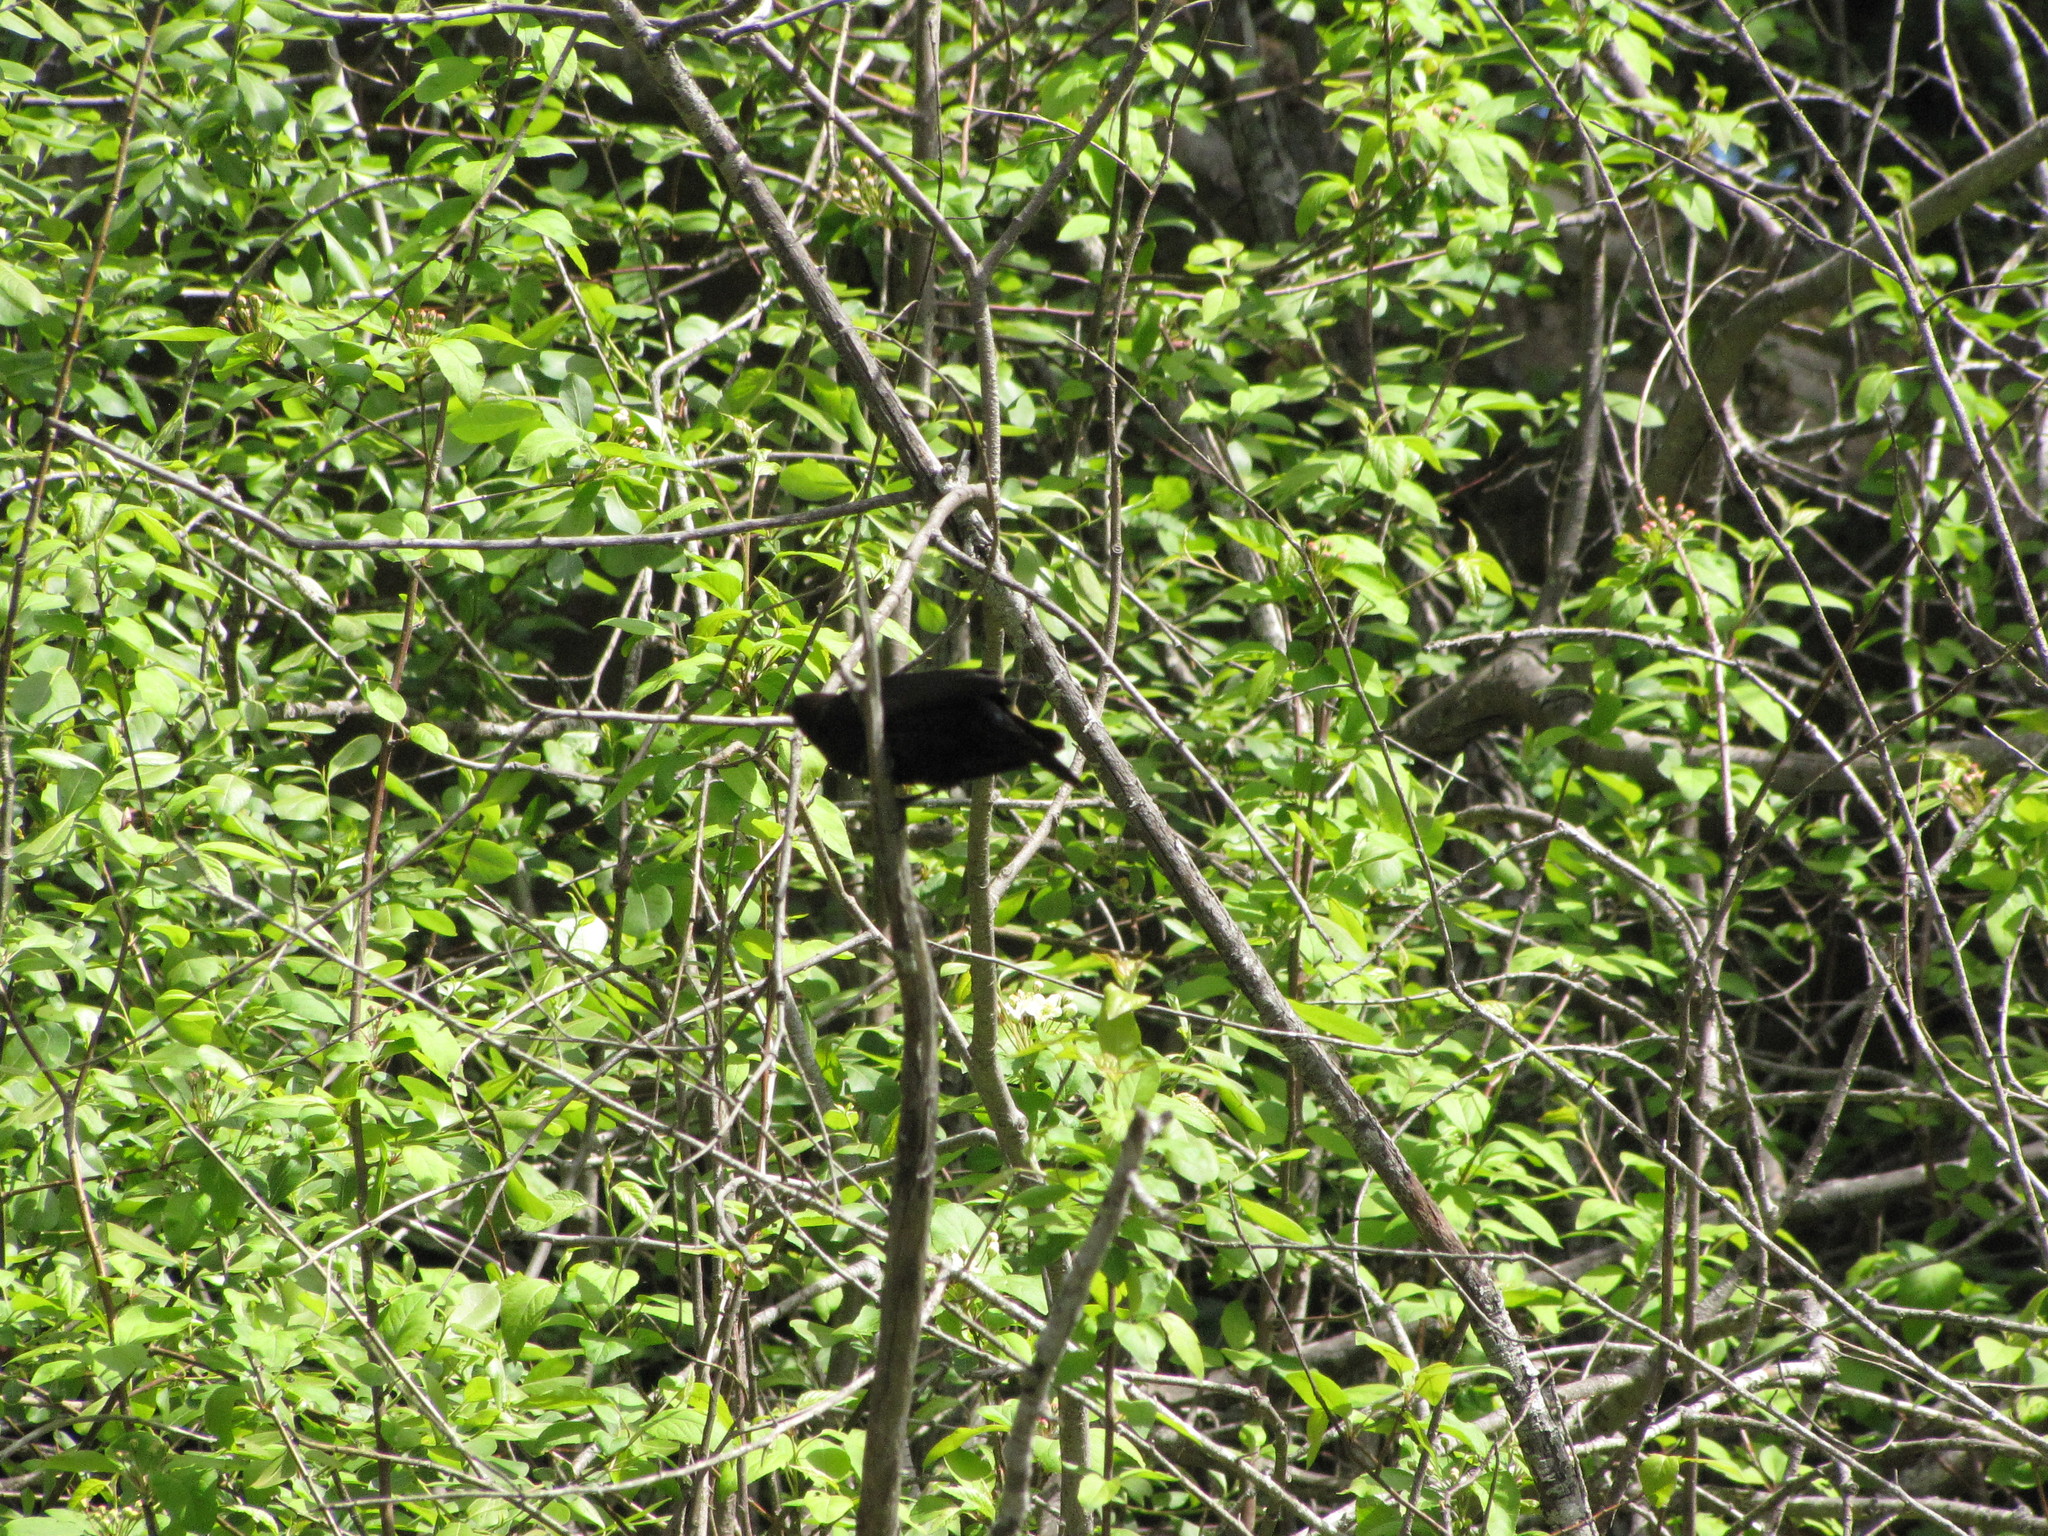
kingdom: Animalia
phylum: Chordata
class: Aves
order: Passeriformes
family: Icteridae
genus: Molothrus
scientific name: Molothrus ater
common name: Brown-headed cowbird
